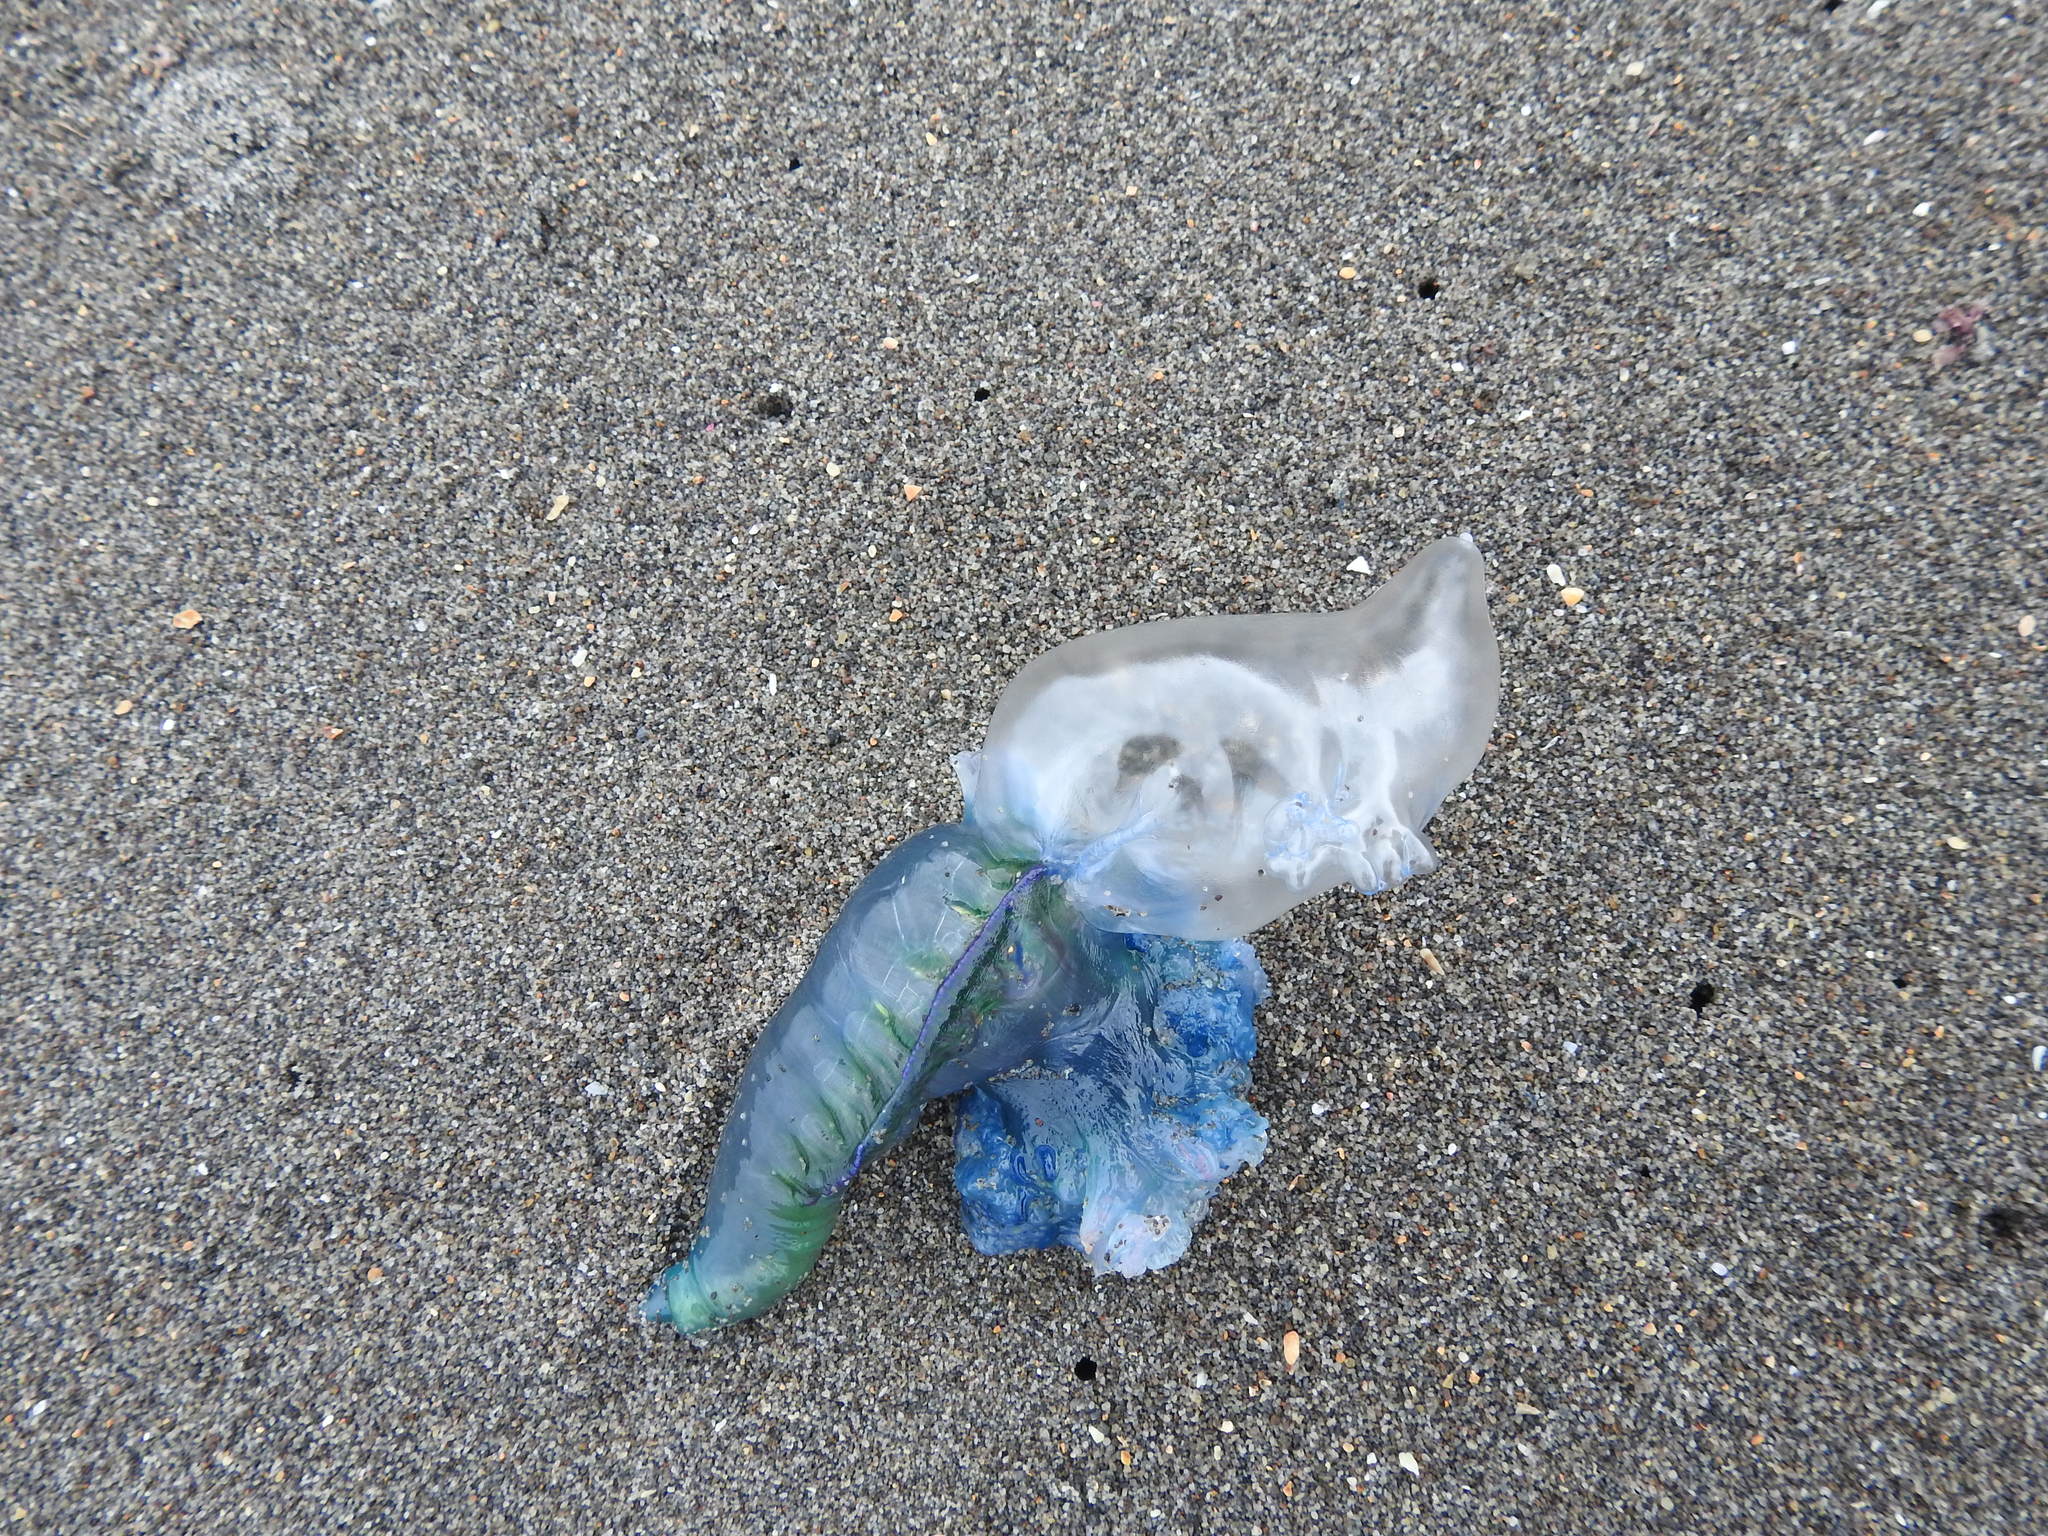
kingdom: Animalia
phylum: Cnidaria
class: Hydrozoa
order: Siphonophorae
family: Physaliidae
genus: Physalia
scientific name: Physalia physalis
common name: Portuguese man-of-war
